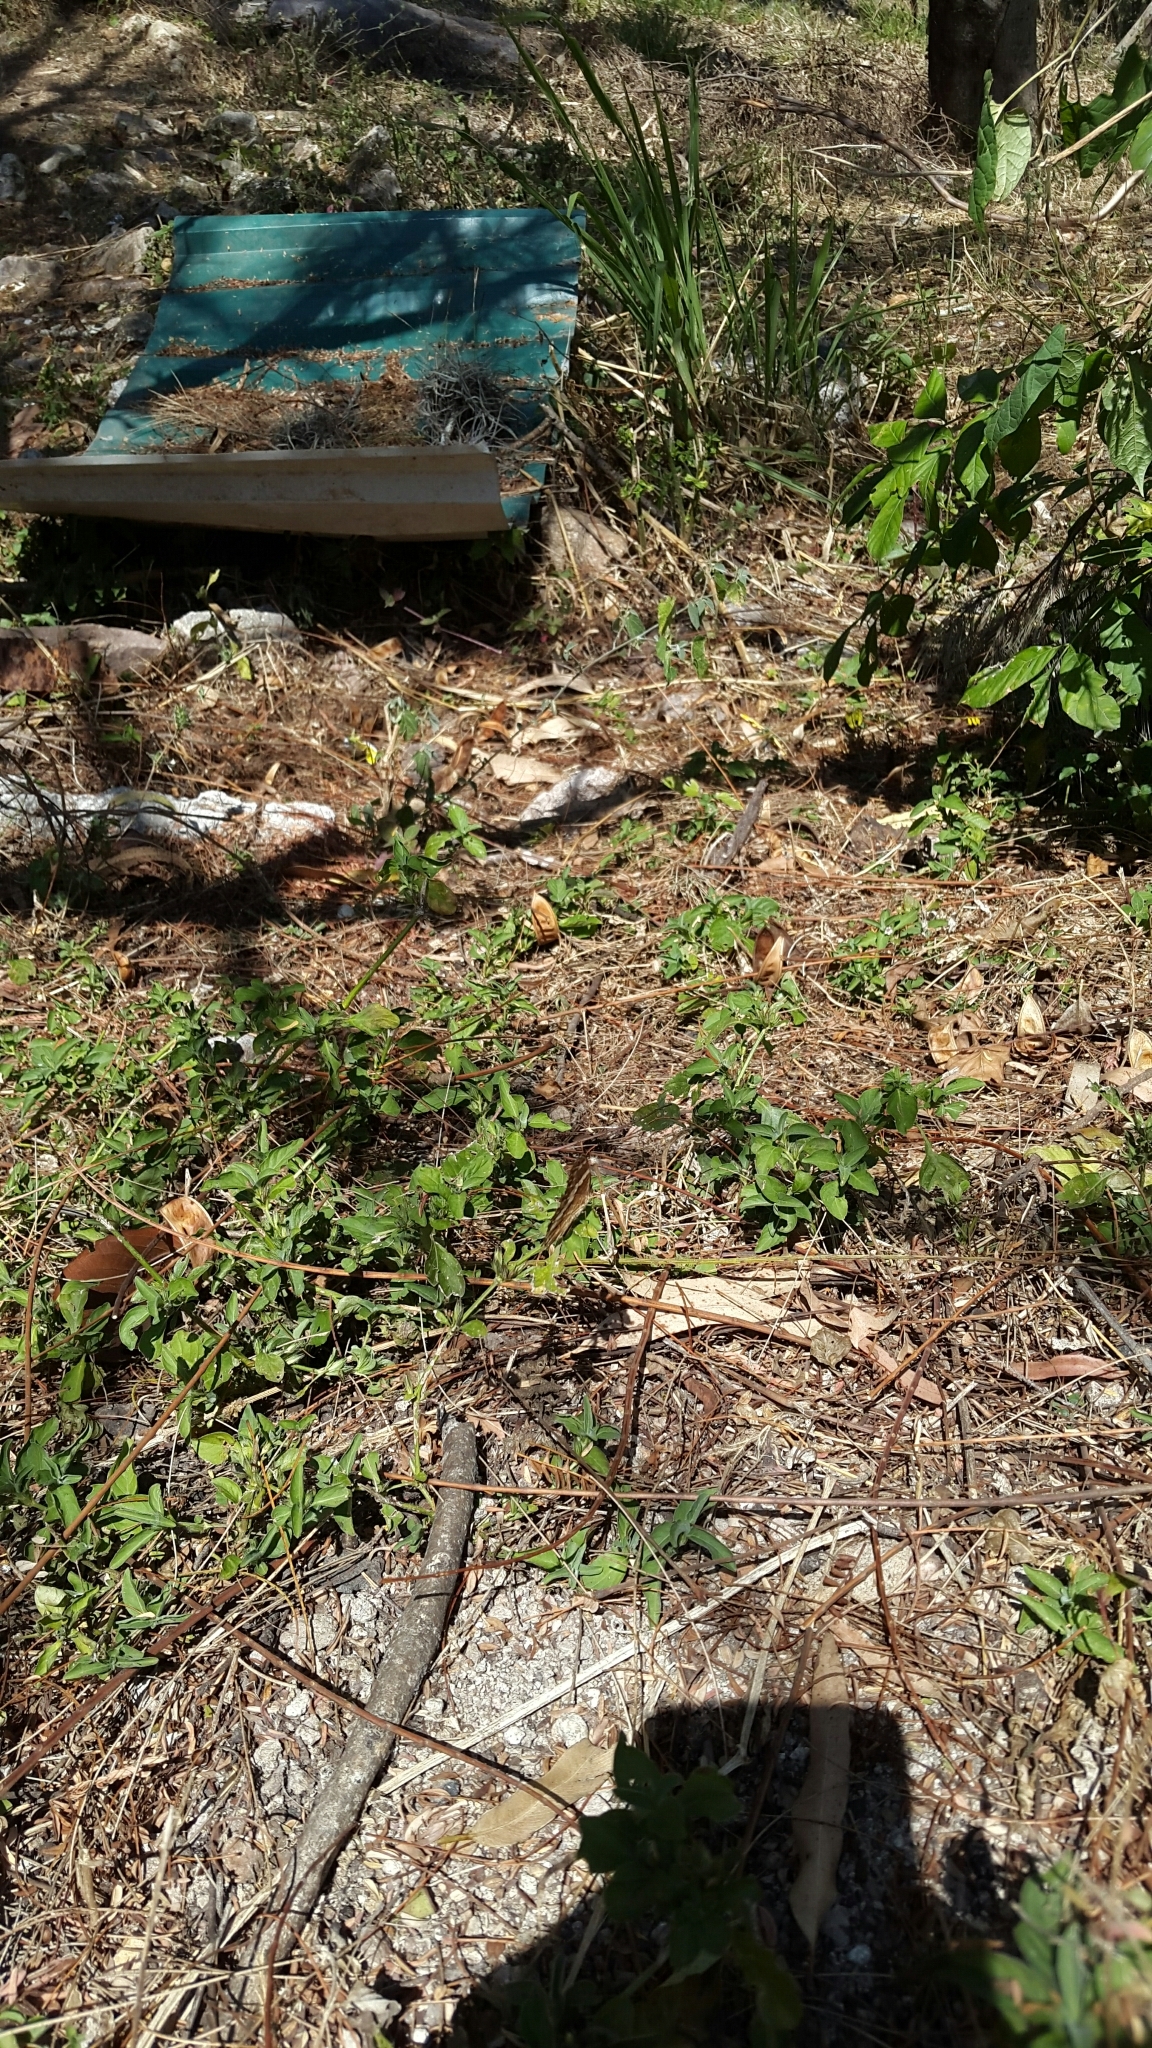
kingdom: Animalia
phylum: Arthropoda
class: Insecta
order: Lepidoptera
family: Nymphalidae
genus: Anartia
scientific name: Anartia fatima
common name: Banded peacock
